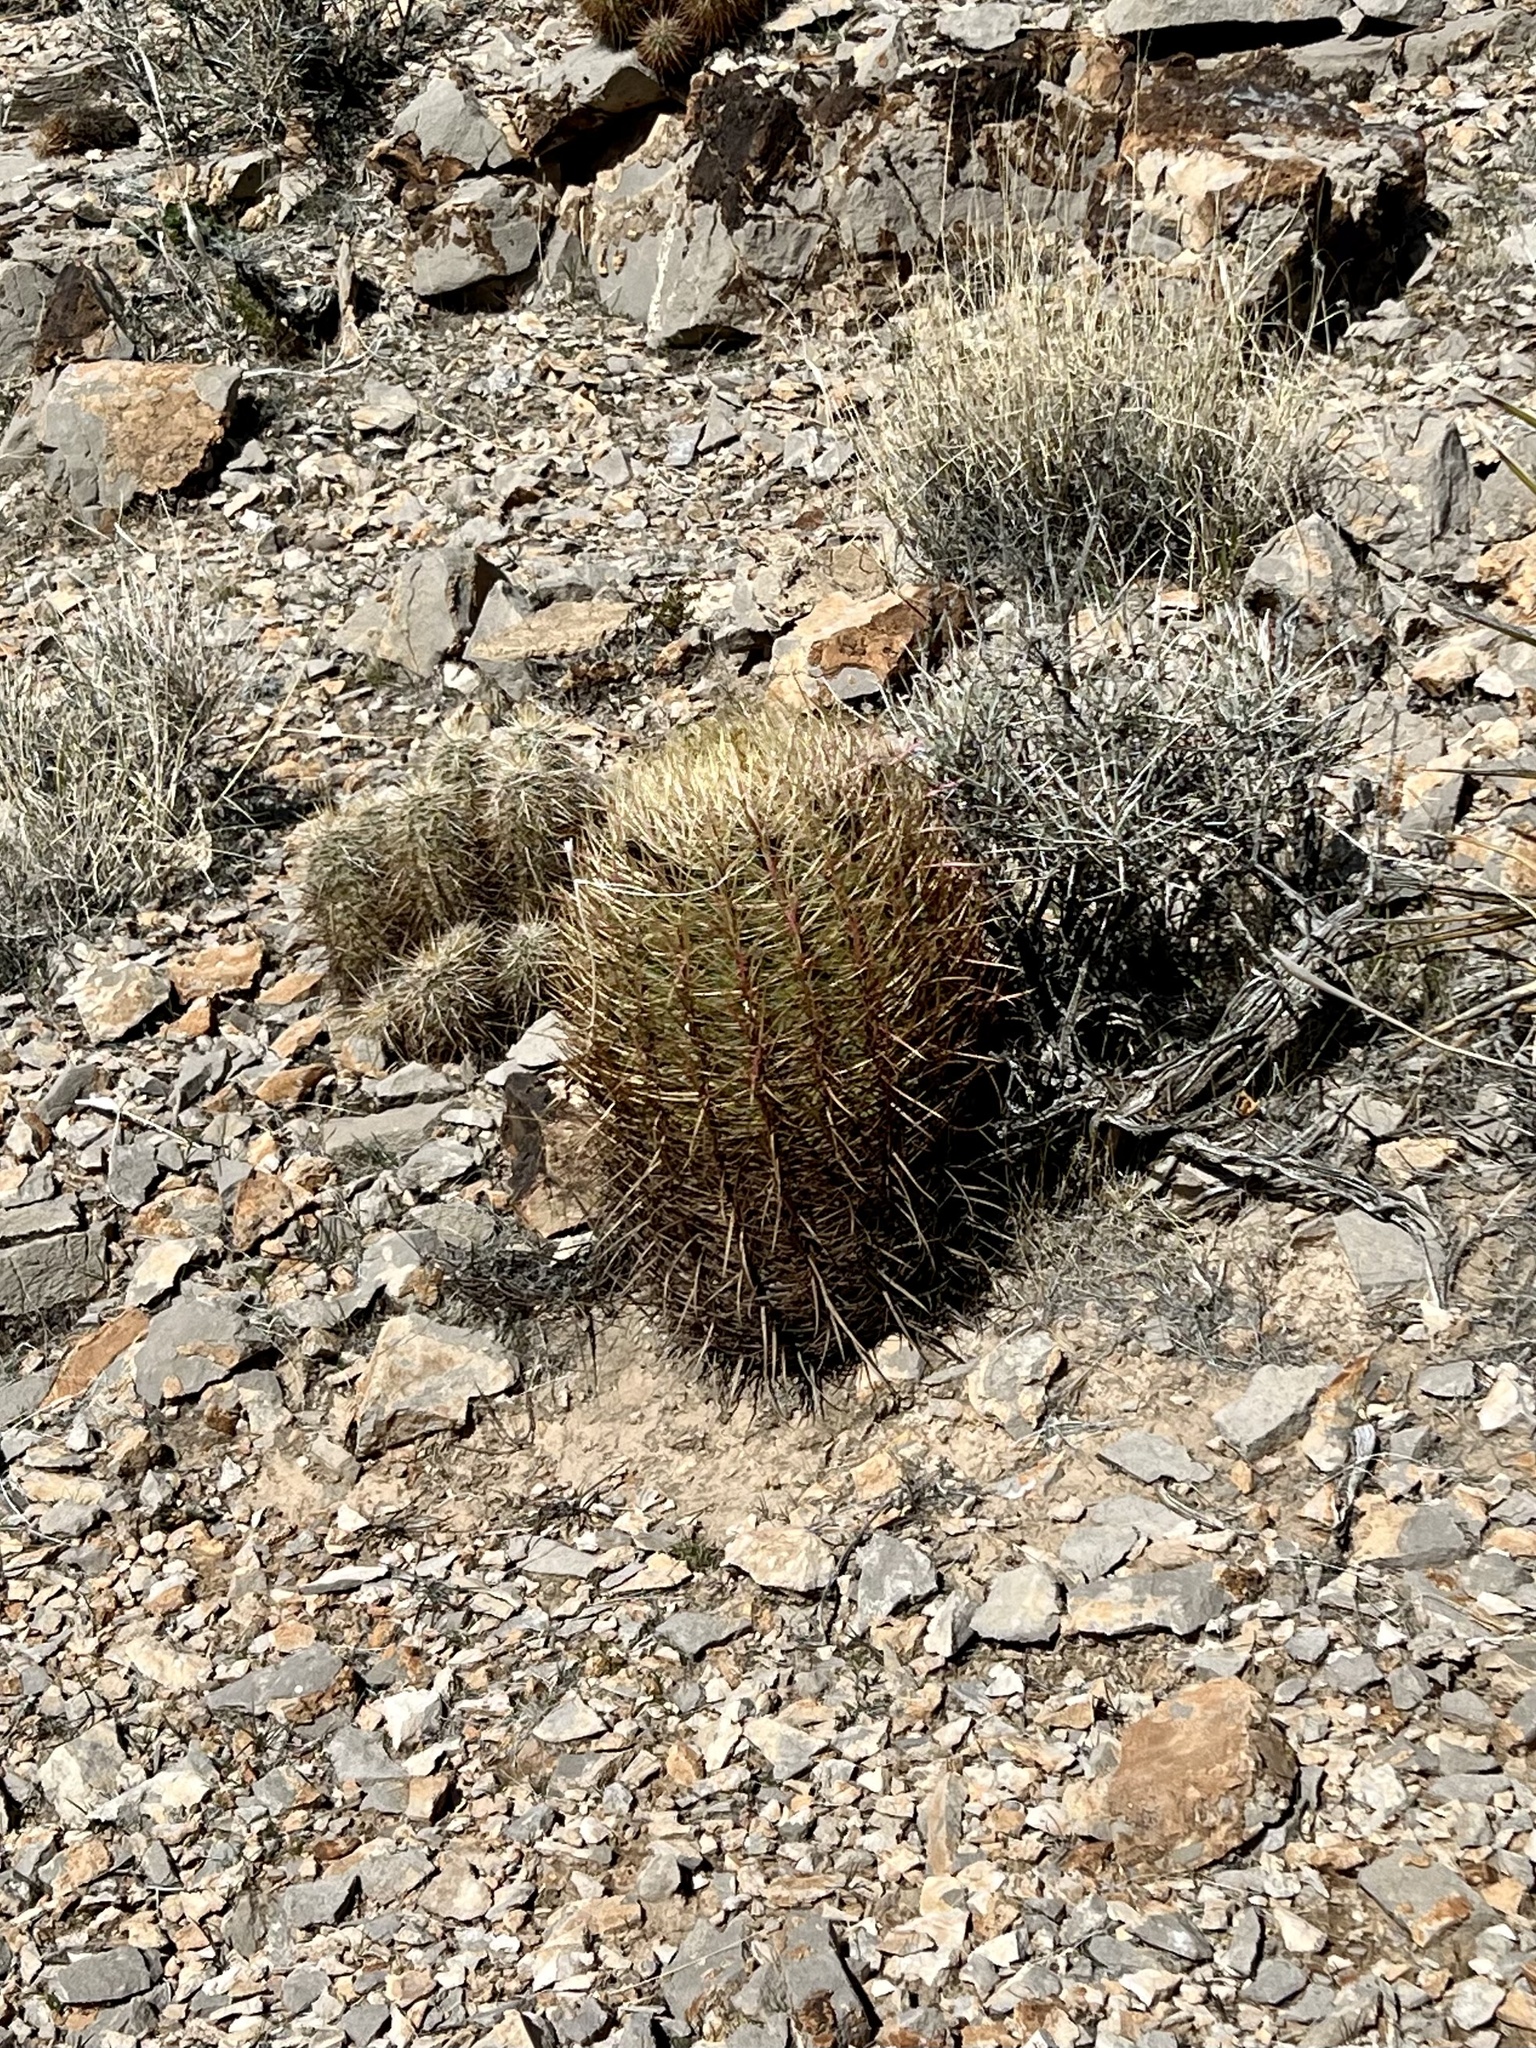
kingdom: Plantae
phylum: Tracheophyta
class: Magnoliopsida
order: Caryophyllales
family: Cactaceae
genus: Ferocactus
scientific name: Ferocactus cylindraceus
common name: California barrel cactus
